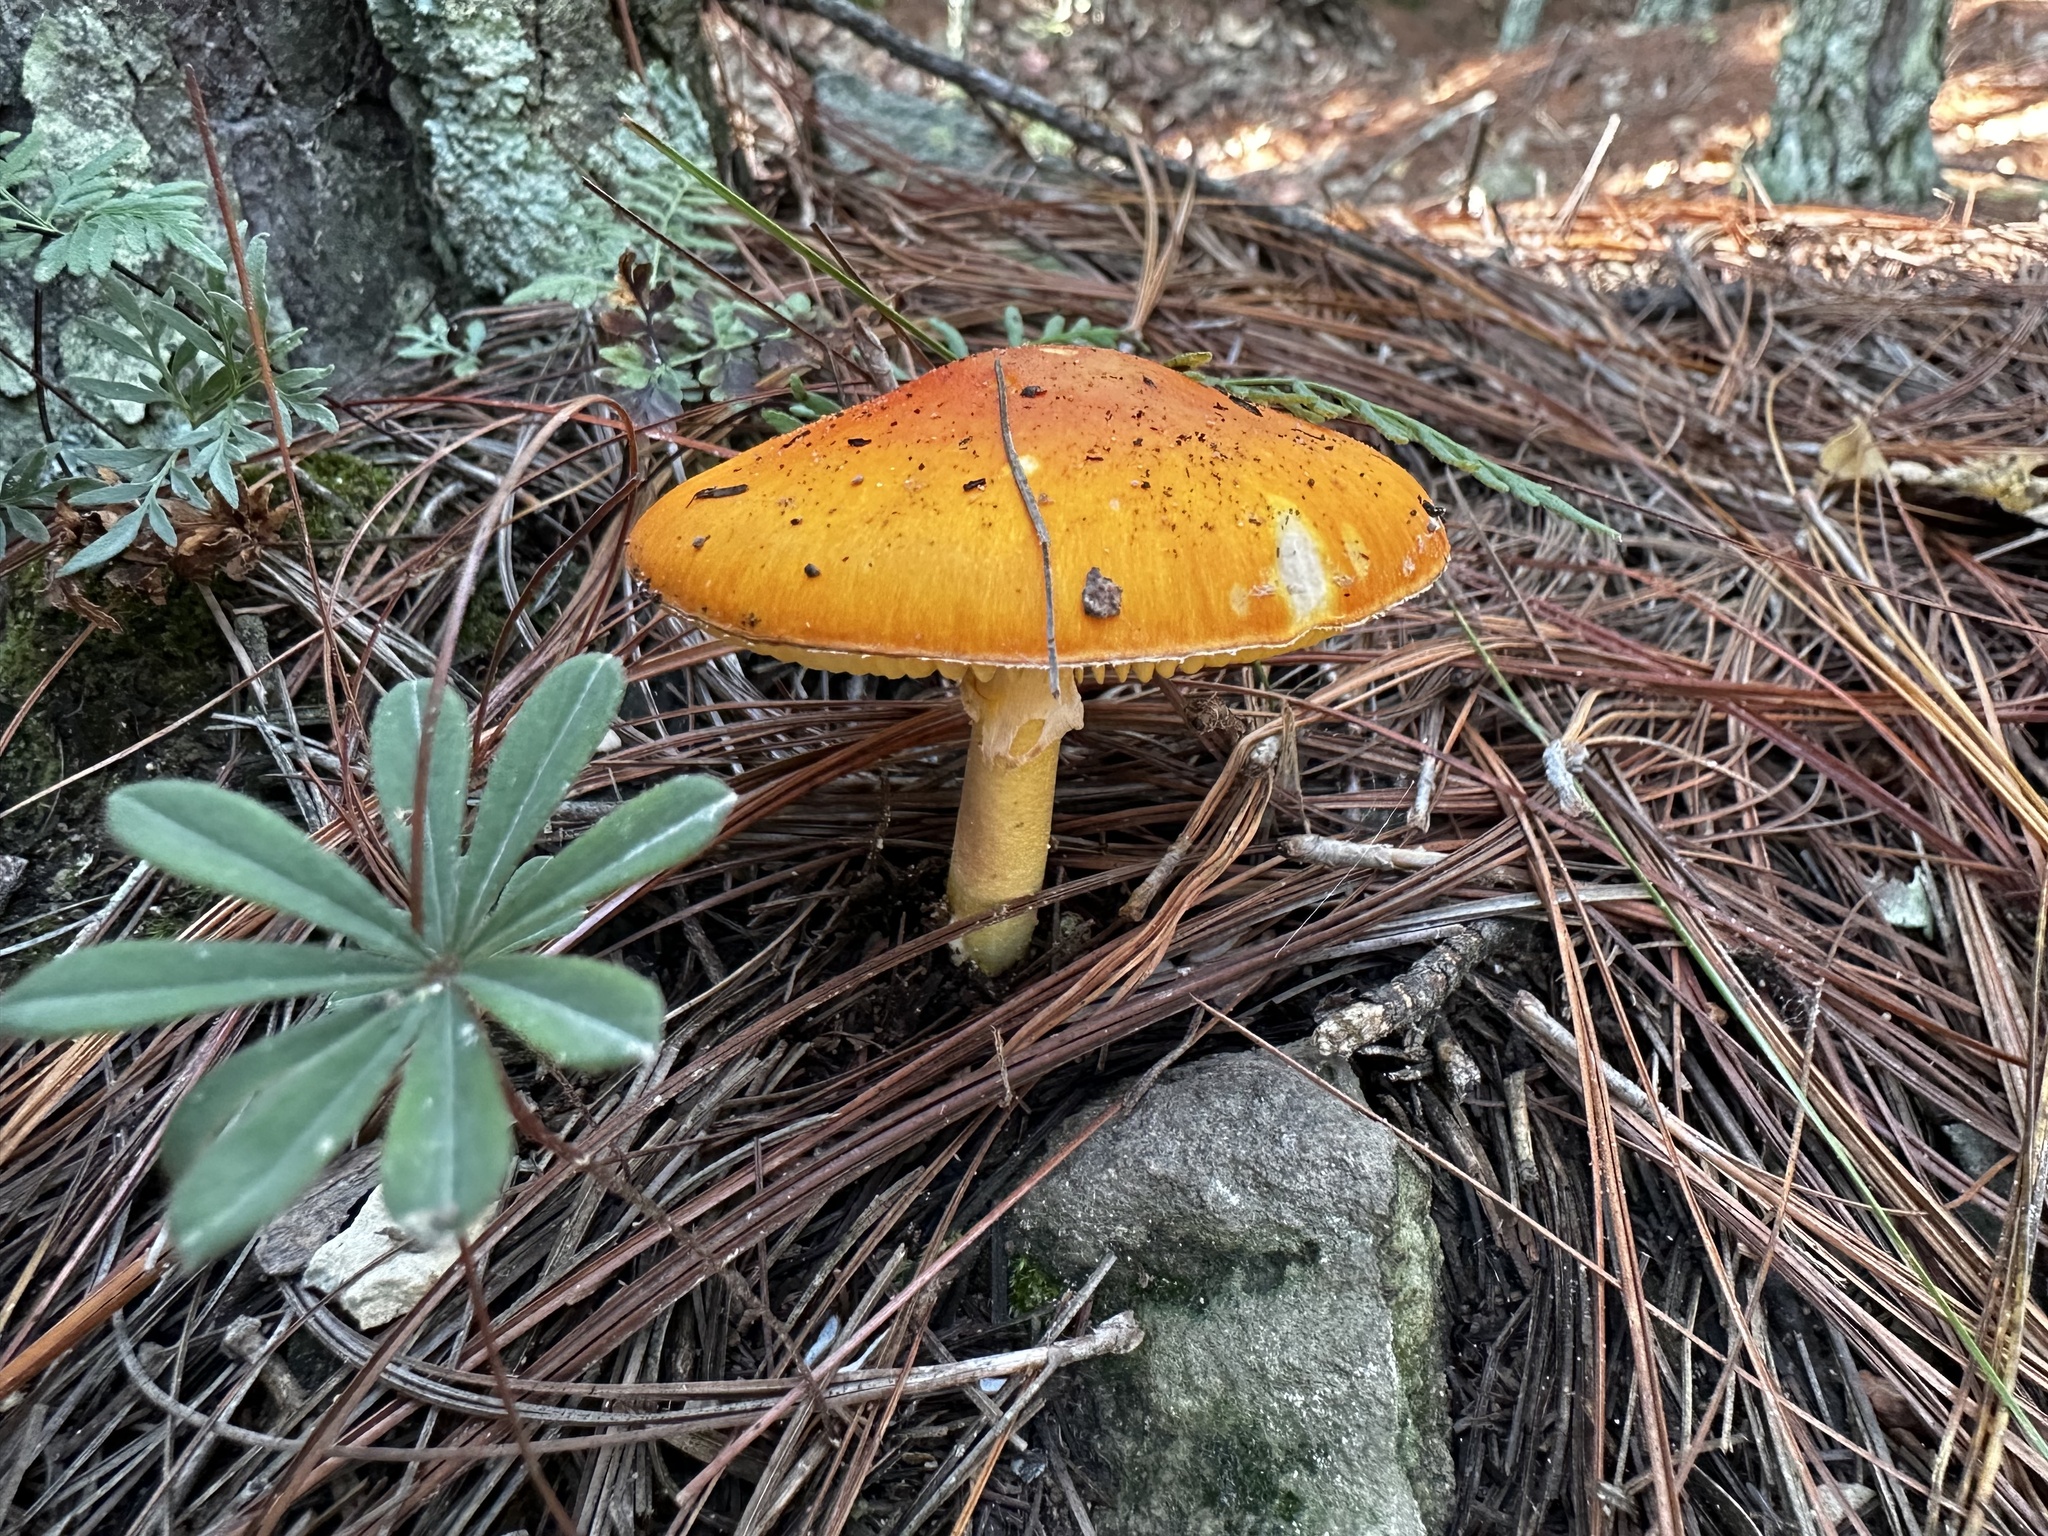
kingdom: Fungi
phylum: Basidiomycota
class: Agaricomycetes
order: Agaricales
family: Amanitaceae
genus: Amanita
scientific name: Amanita flavoconia
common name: Yellow patches
